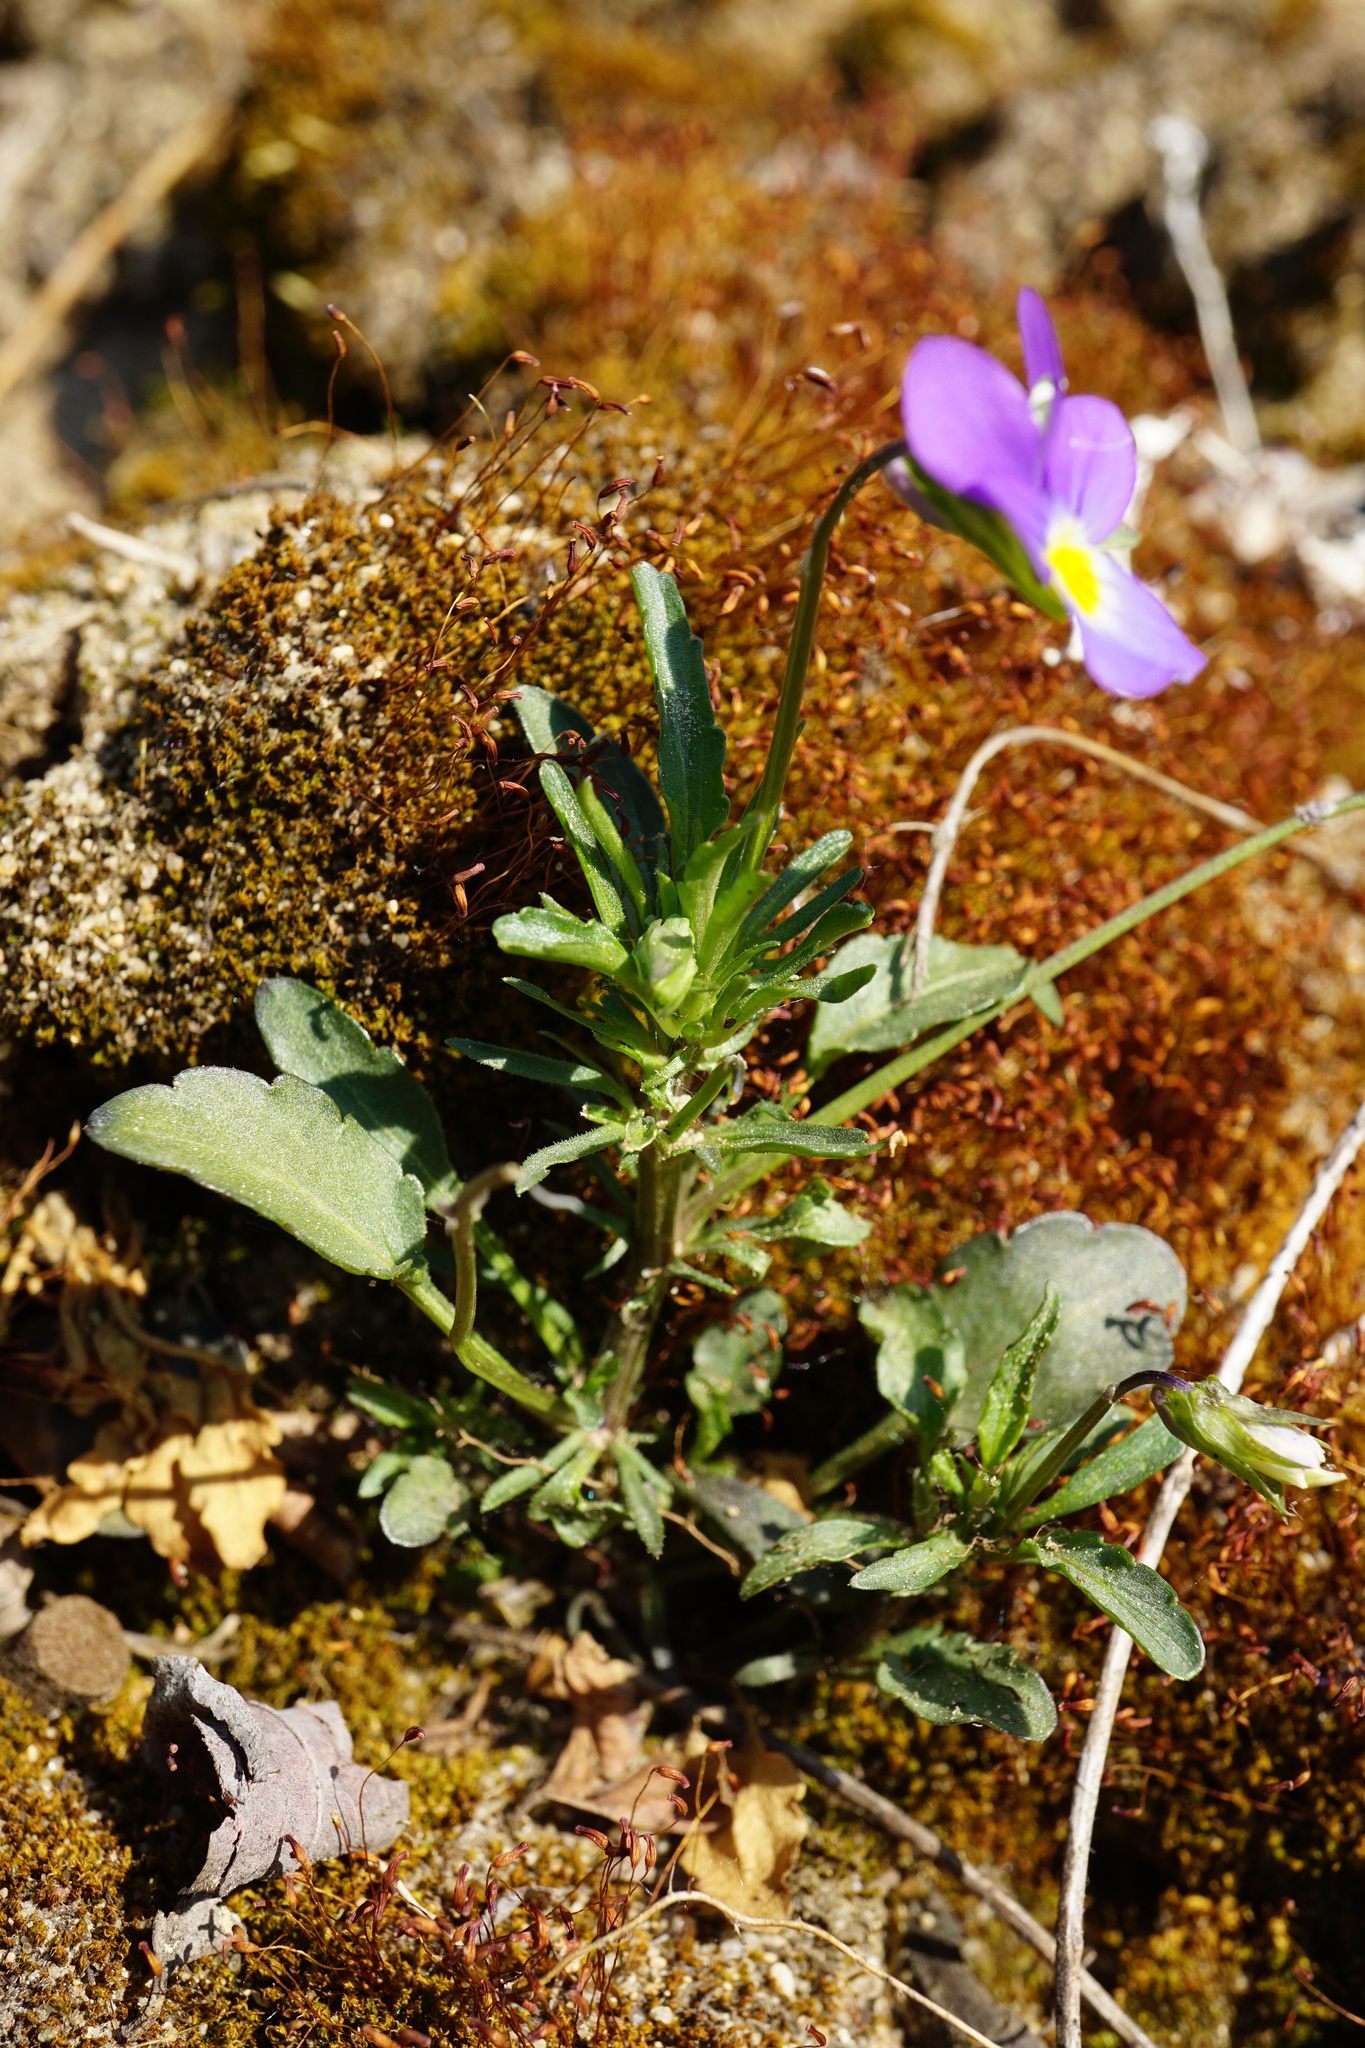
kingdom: Plantae
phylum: Tracheophyta
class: Magnoliopsida
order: Malpighiales
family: Violaceae
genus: Viola
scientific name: Viola tricolor
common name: Pansy
